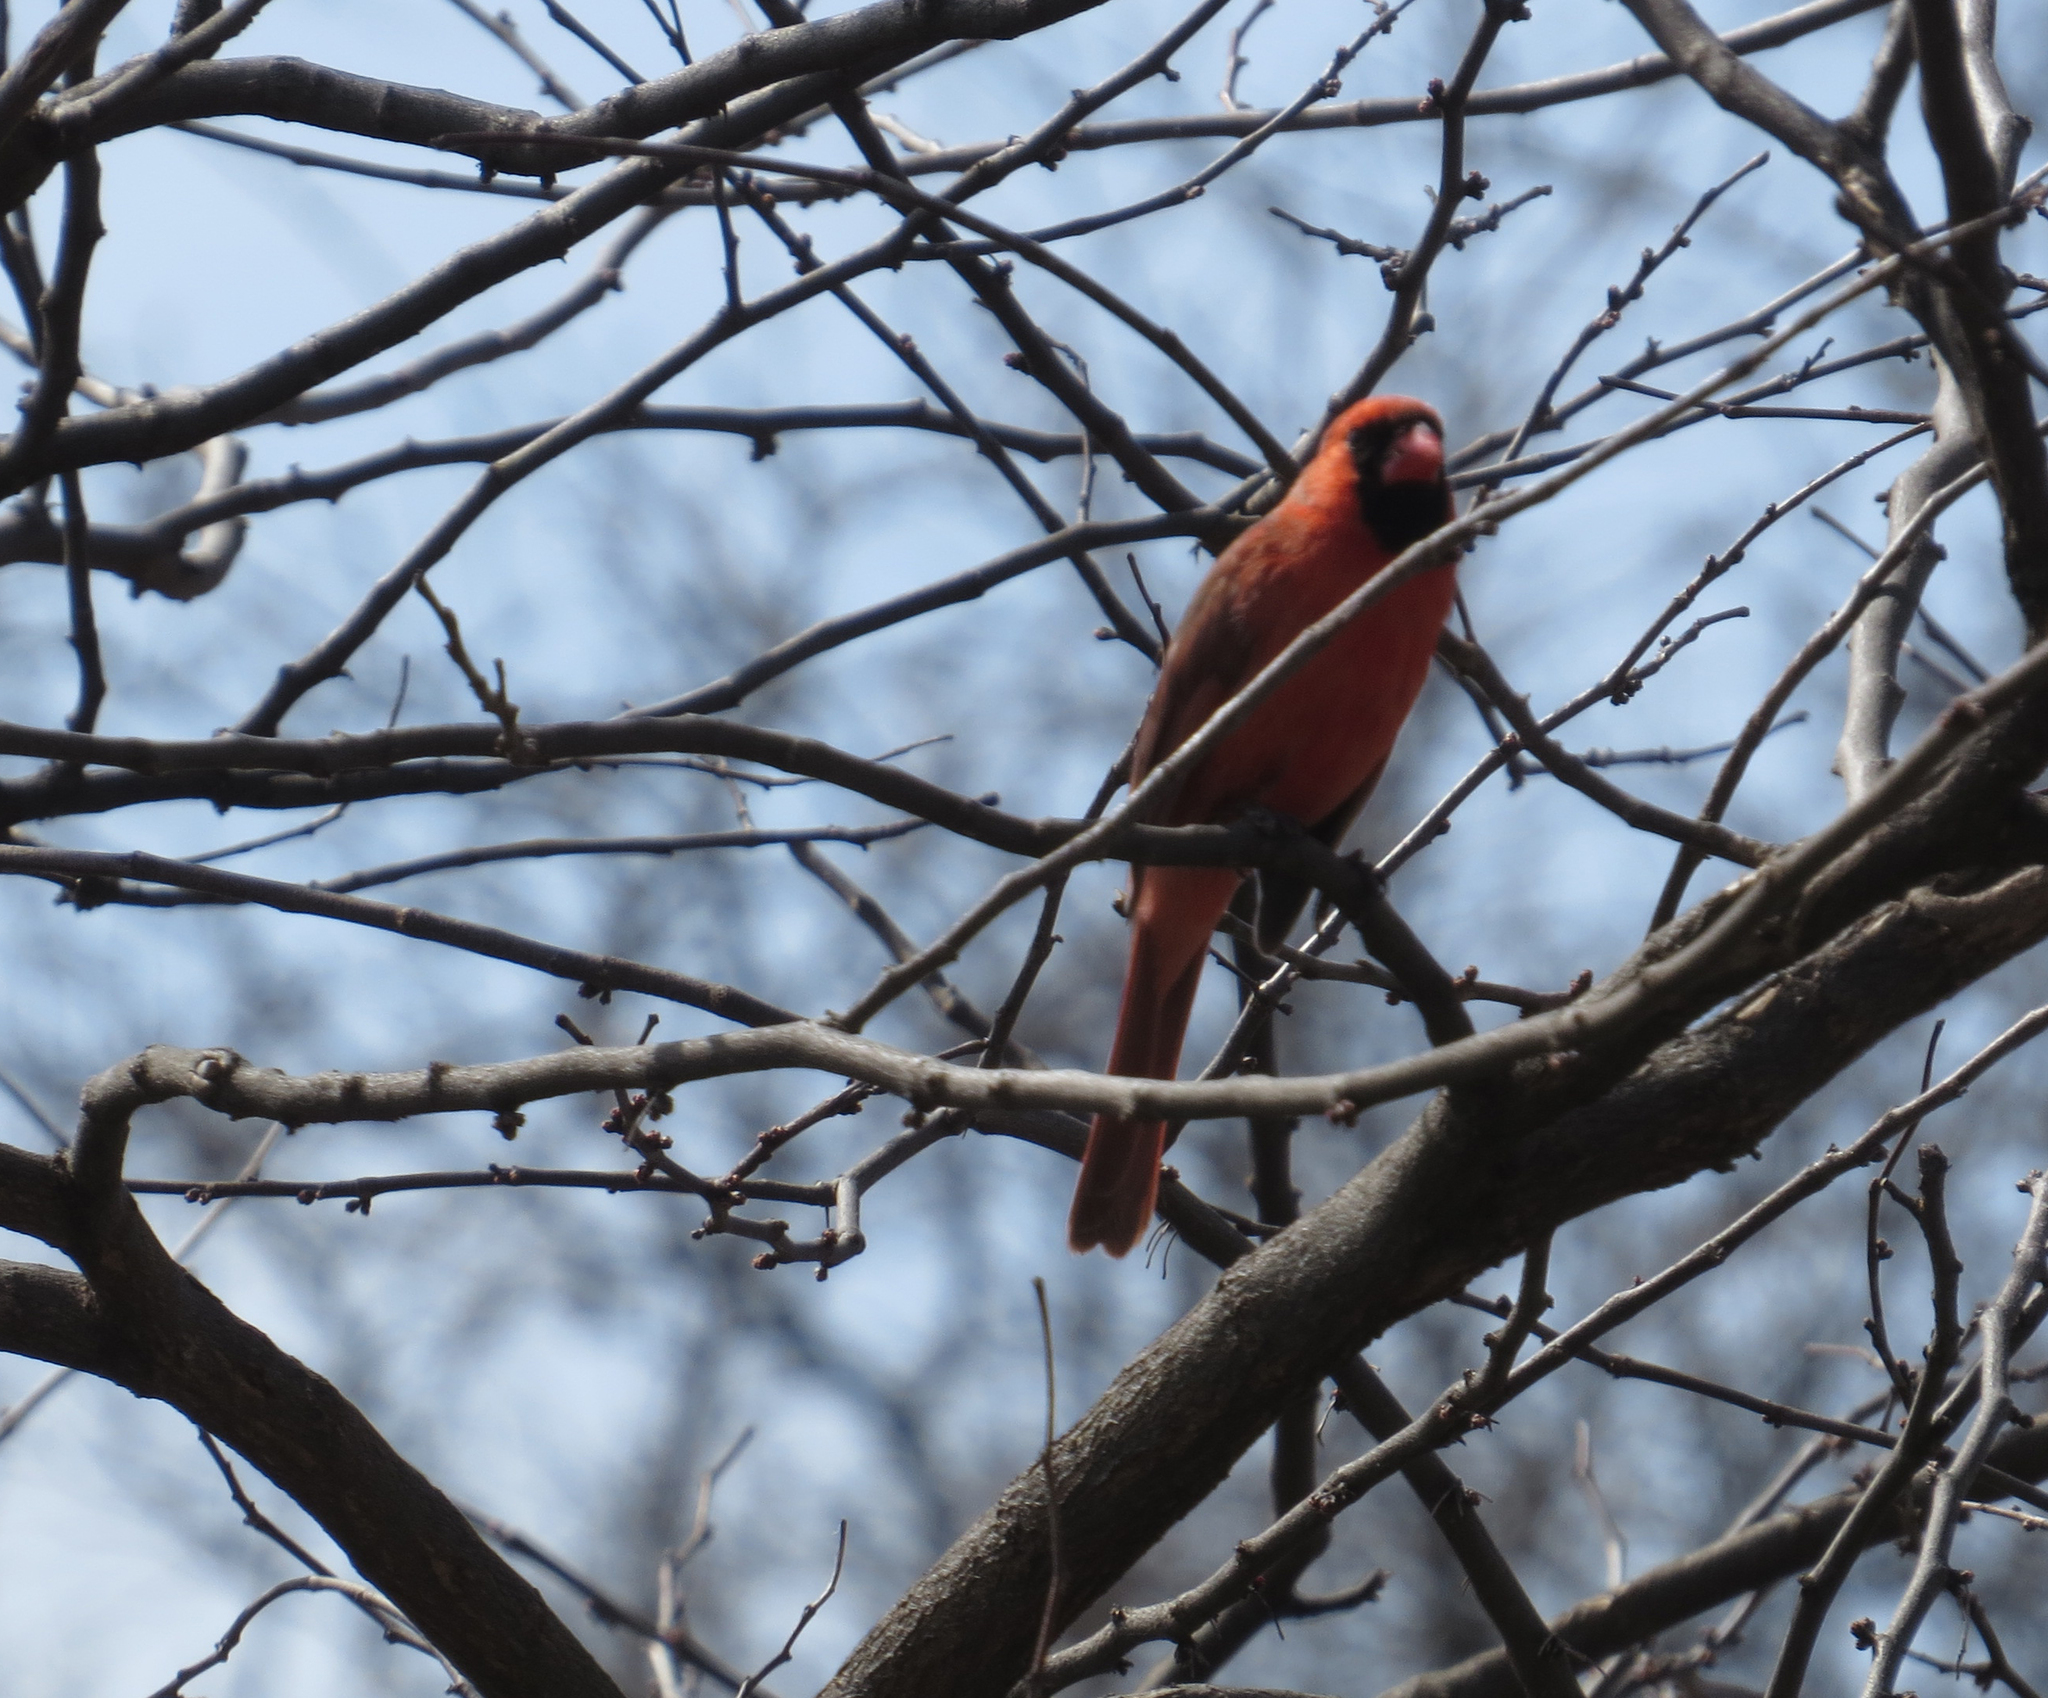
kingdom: Animalia
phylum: Chordata
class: Aves
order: Passeriformes
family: Cardinalidae
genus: Cardinalis
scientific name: Cardinalis cardinalis
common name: Northern cardinal
